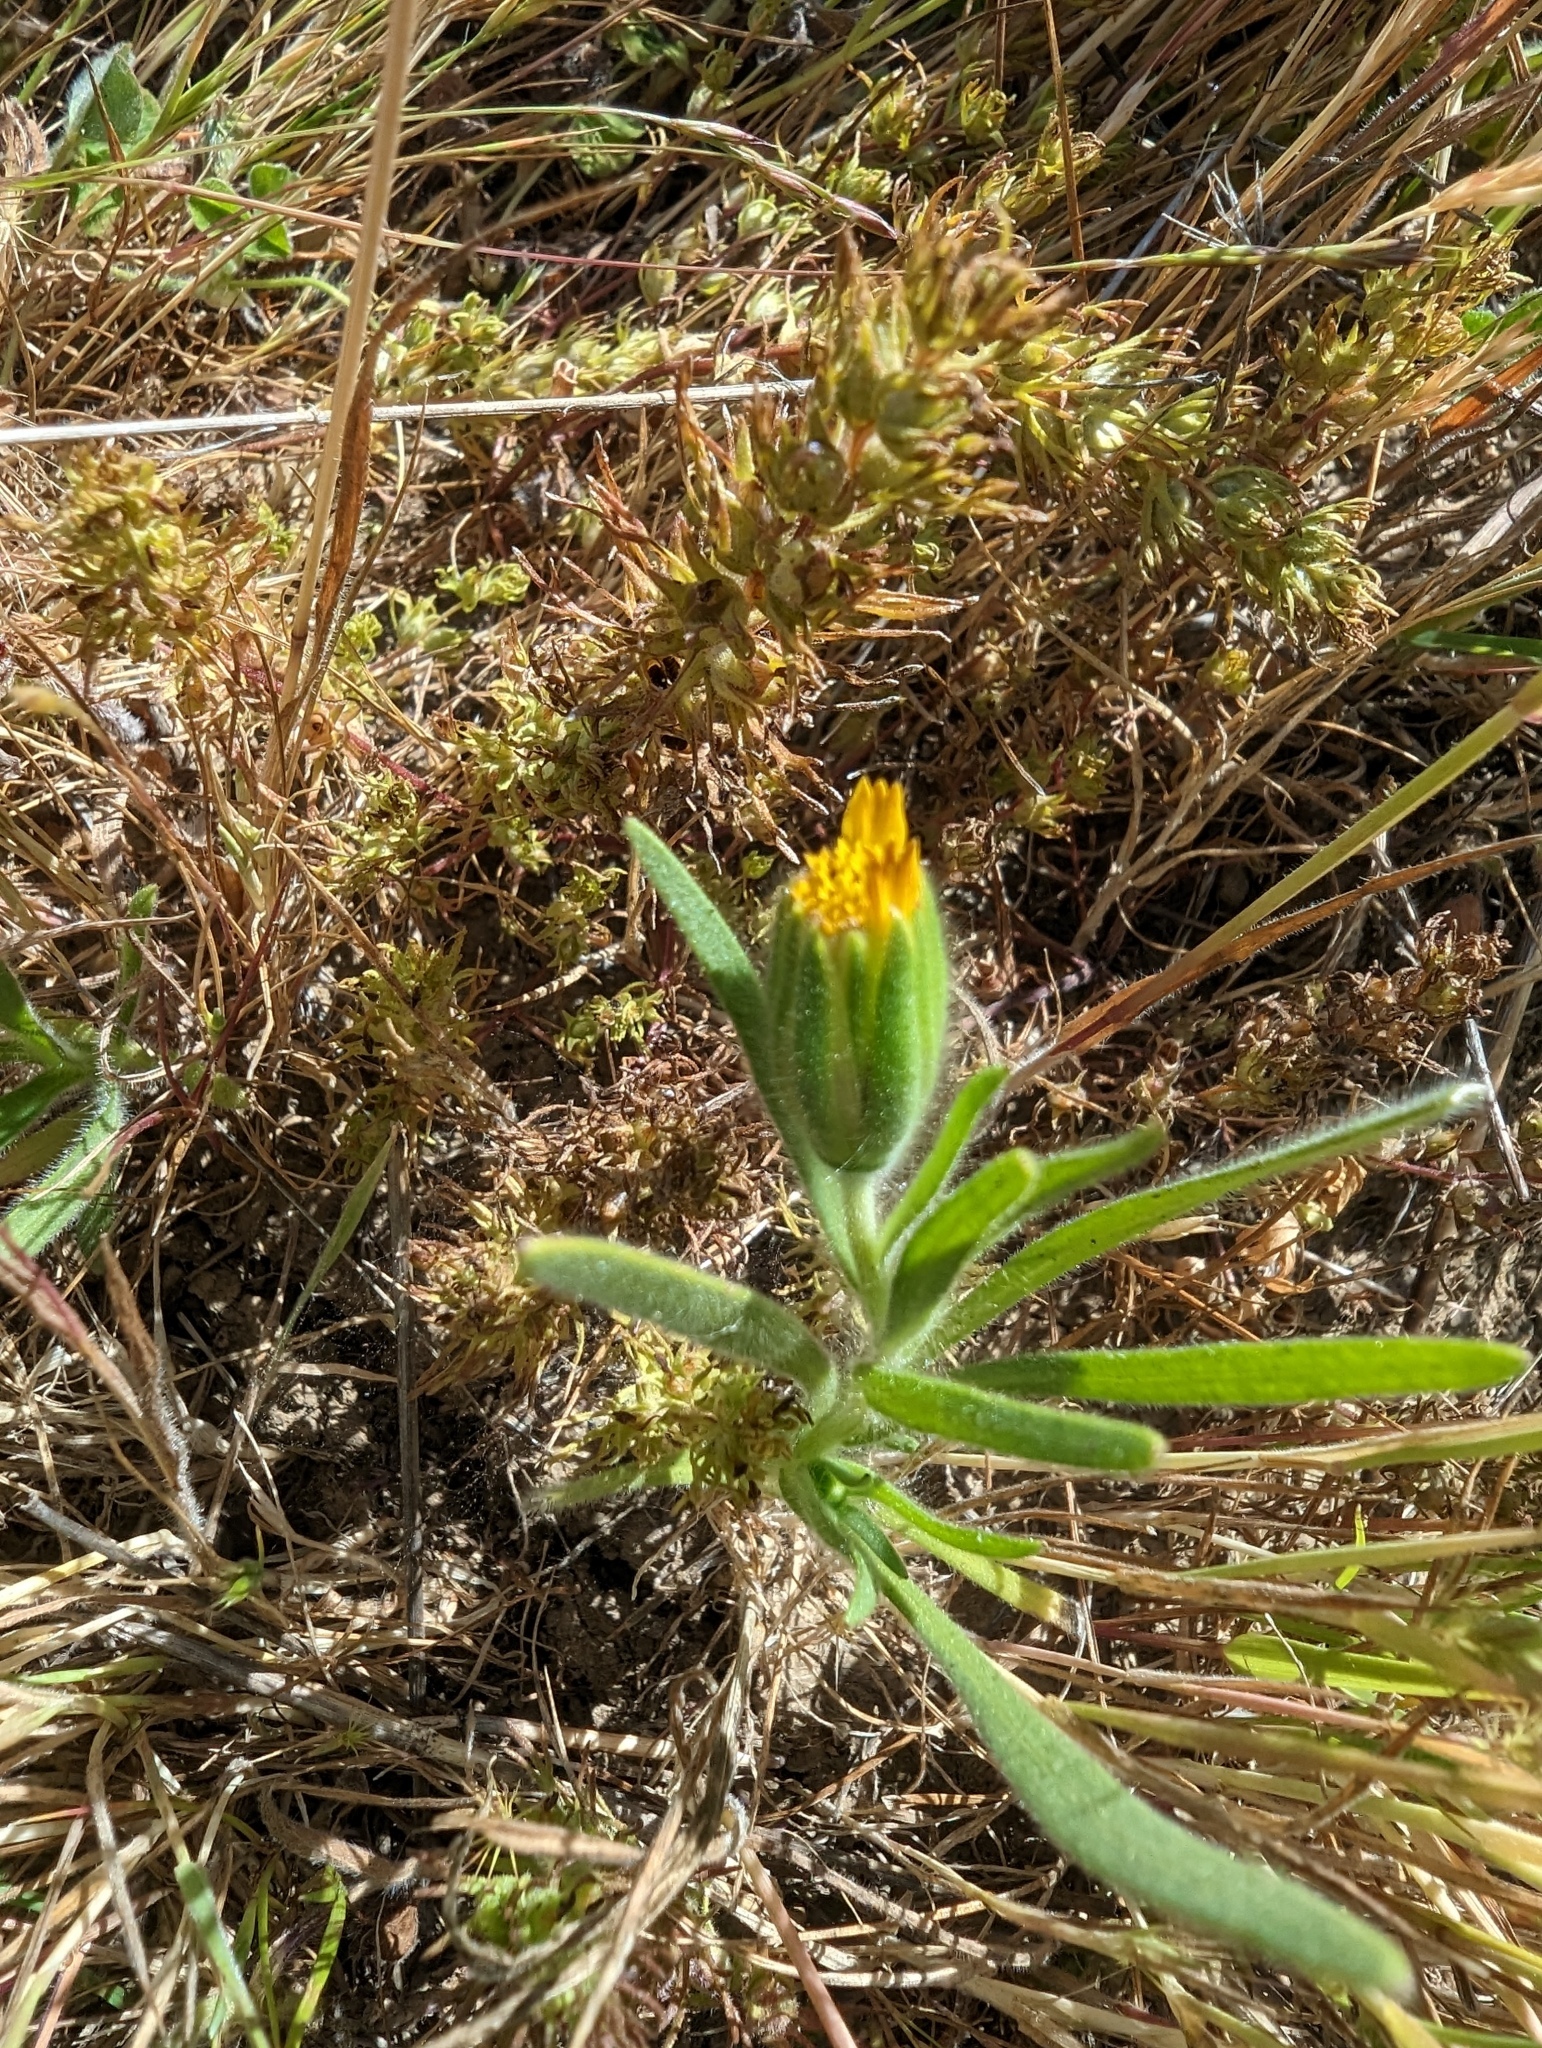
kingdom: Plantae
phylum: Tracheophyta
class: Magnoliopsida
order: Asterales
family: Asteraceae
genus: Achyrachaena
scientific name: Achyrachaena mollis
